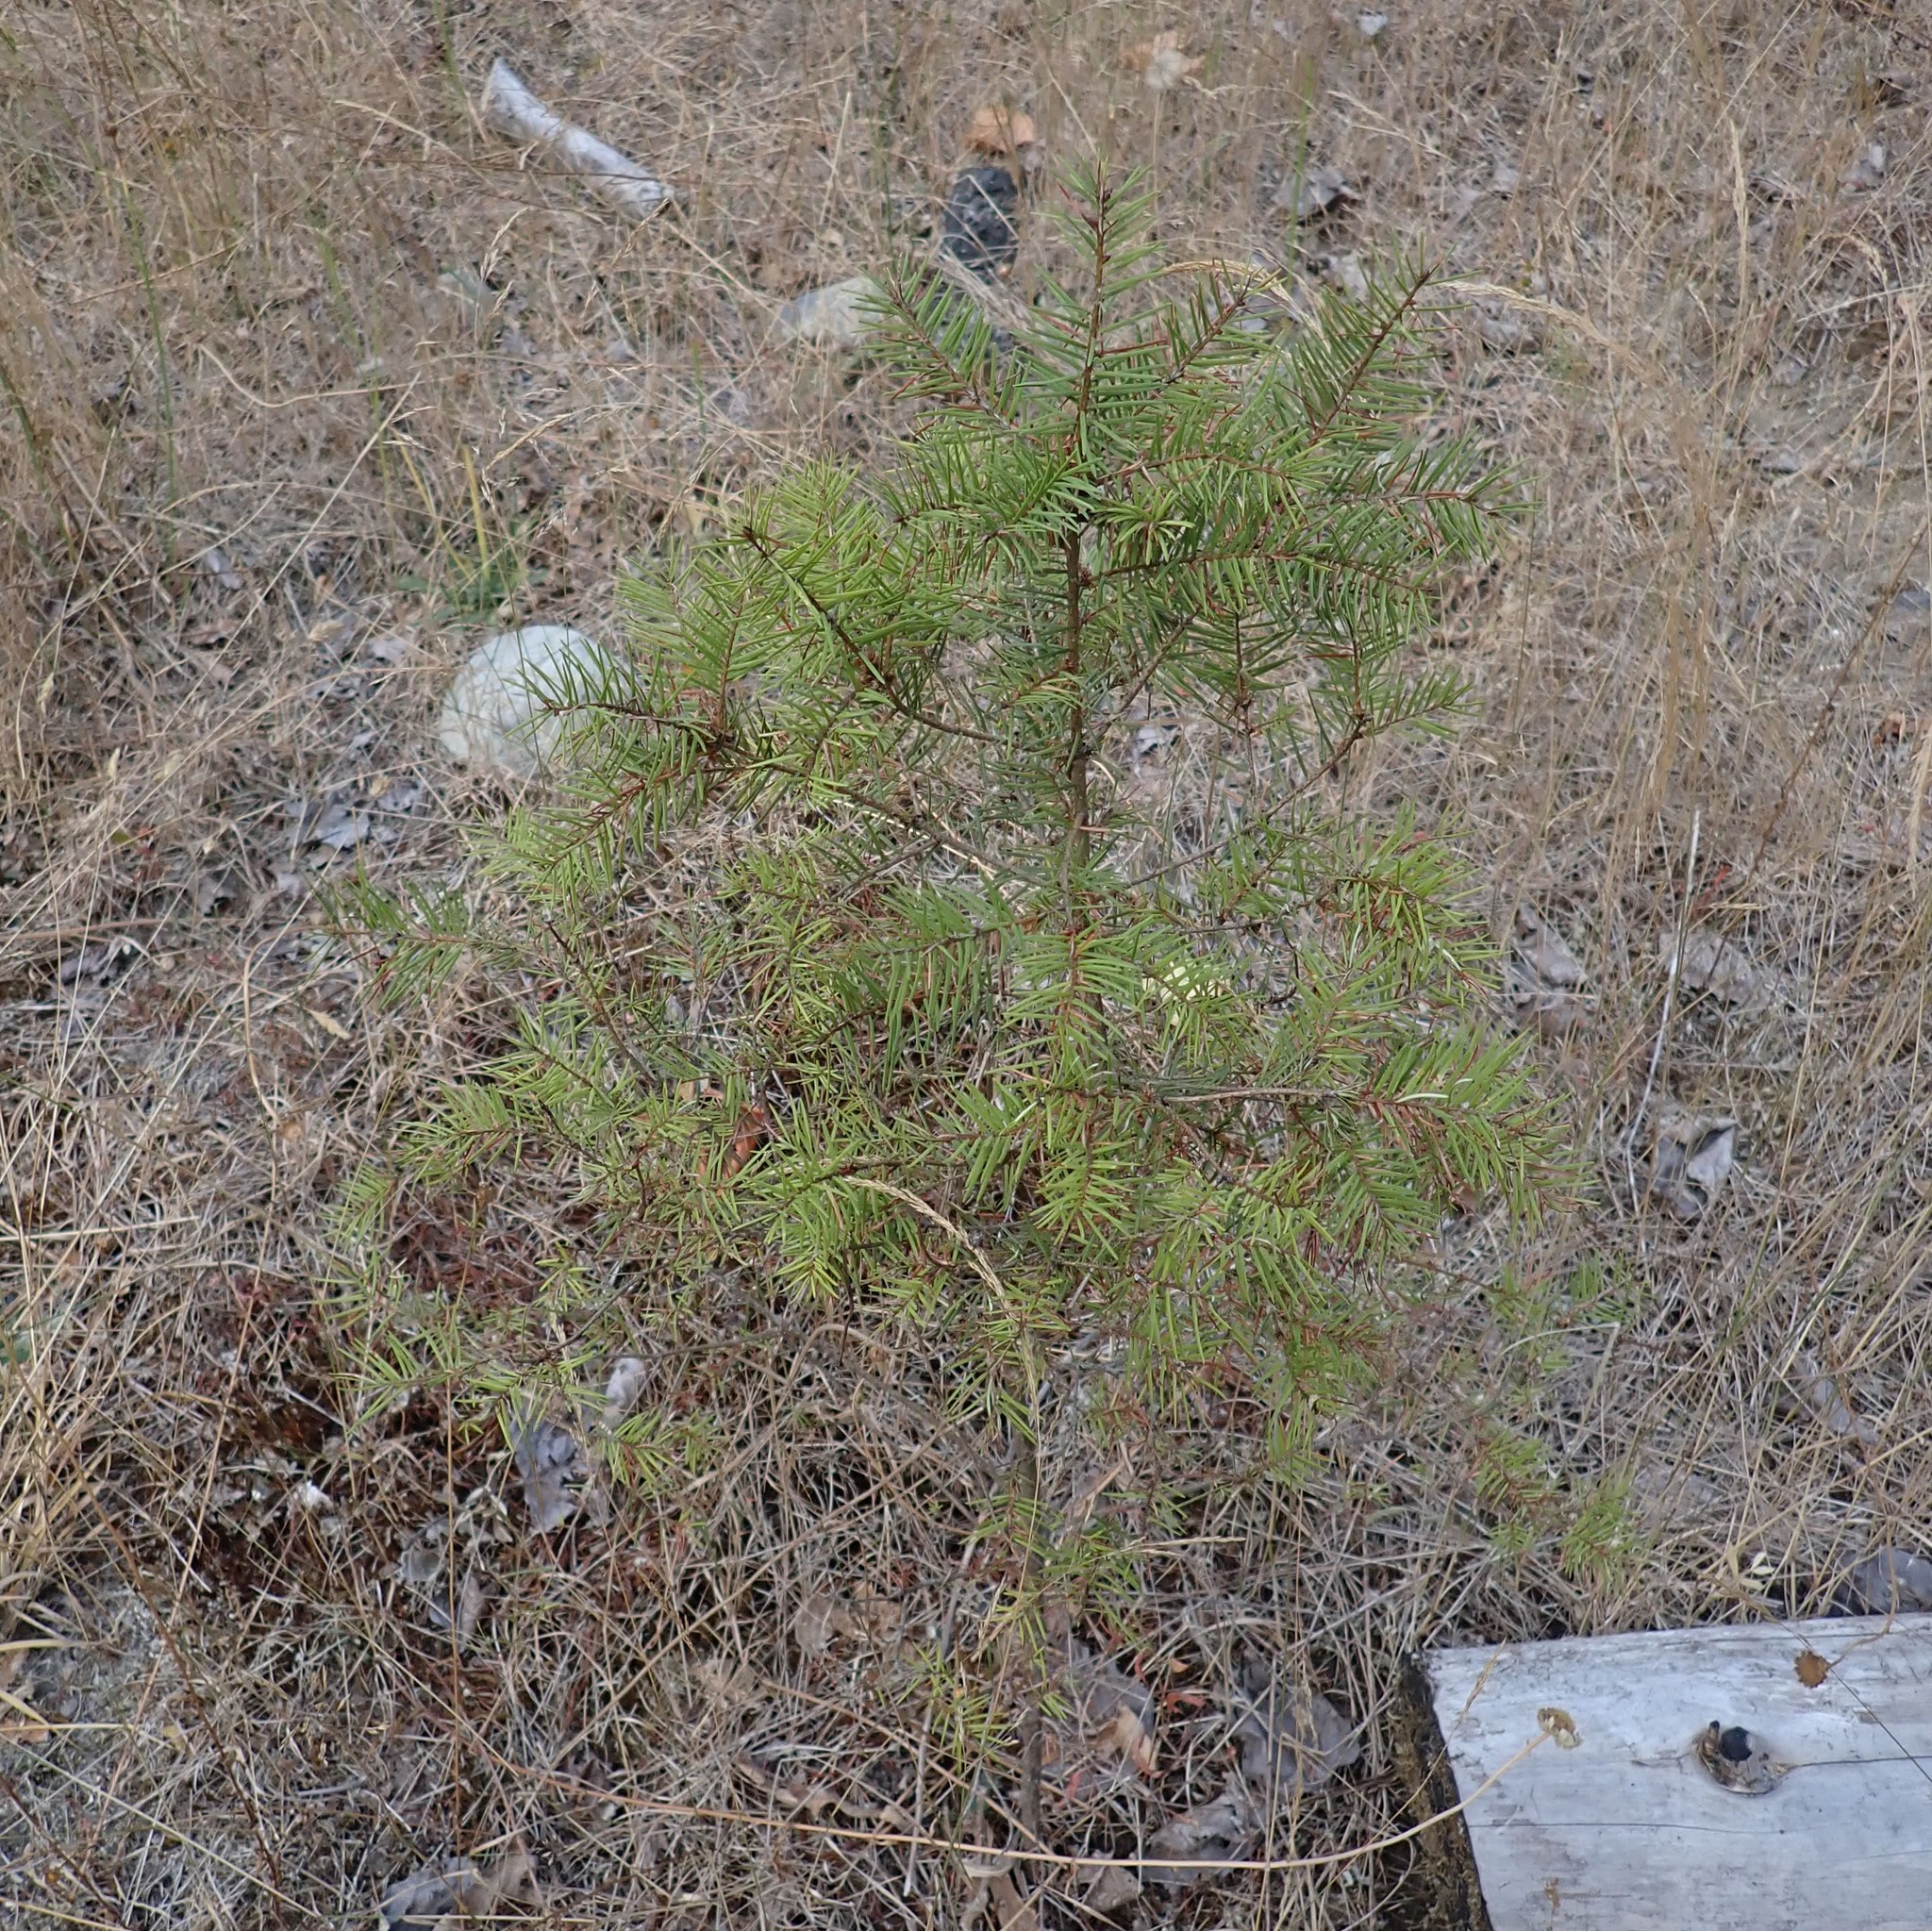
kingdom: Plantae
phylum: Tracheophyta
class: Pinopsida
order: Pinales
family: Pinaceae
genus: Pseudotsuga
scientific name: Pseudotsuga menziesii
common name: Douglas fir
